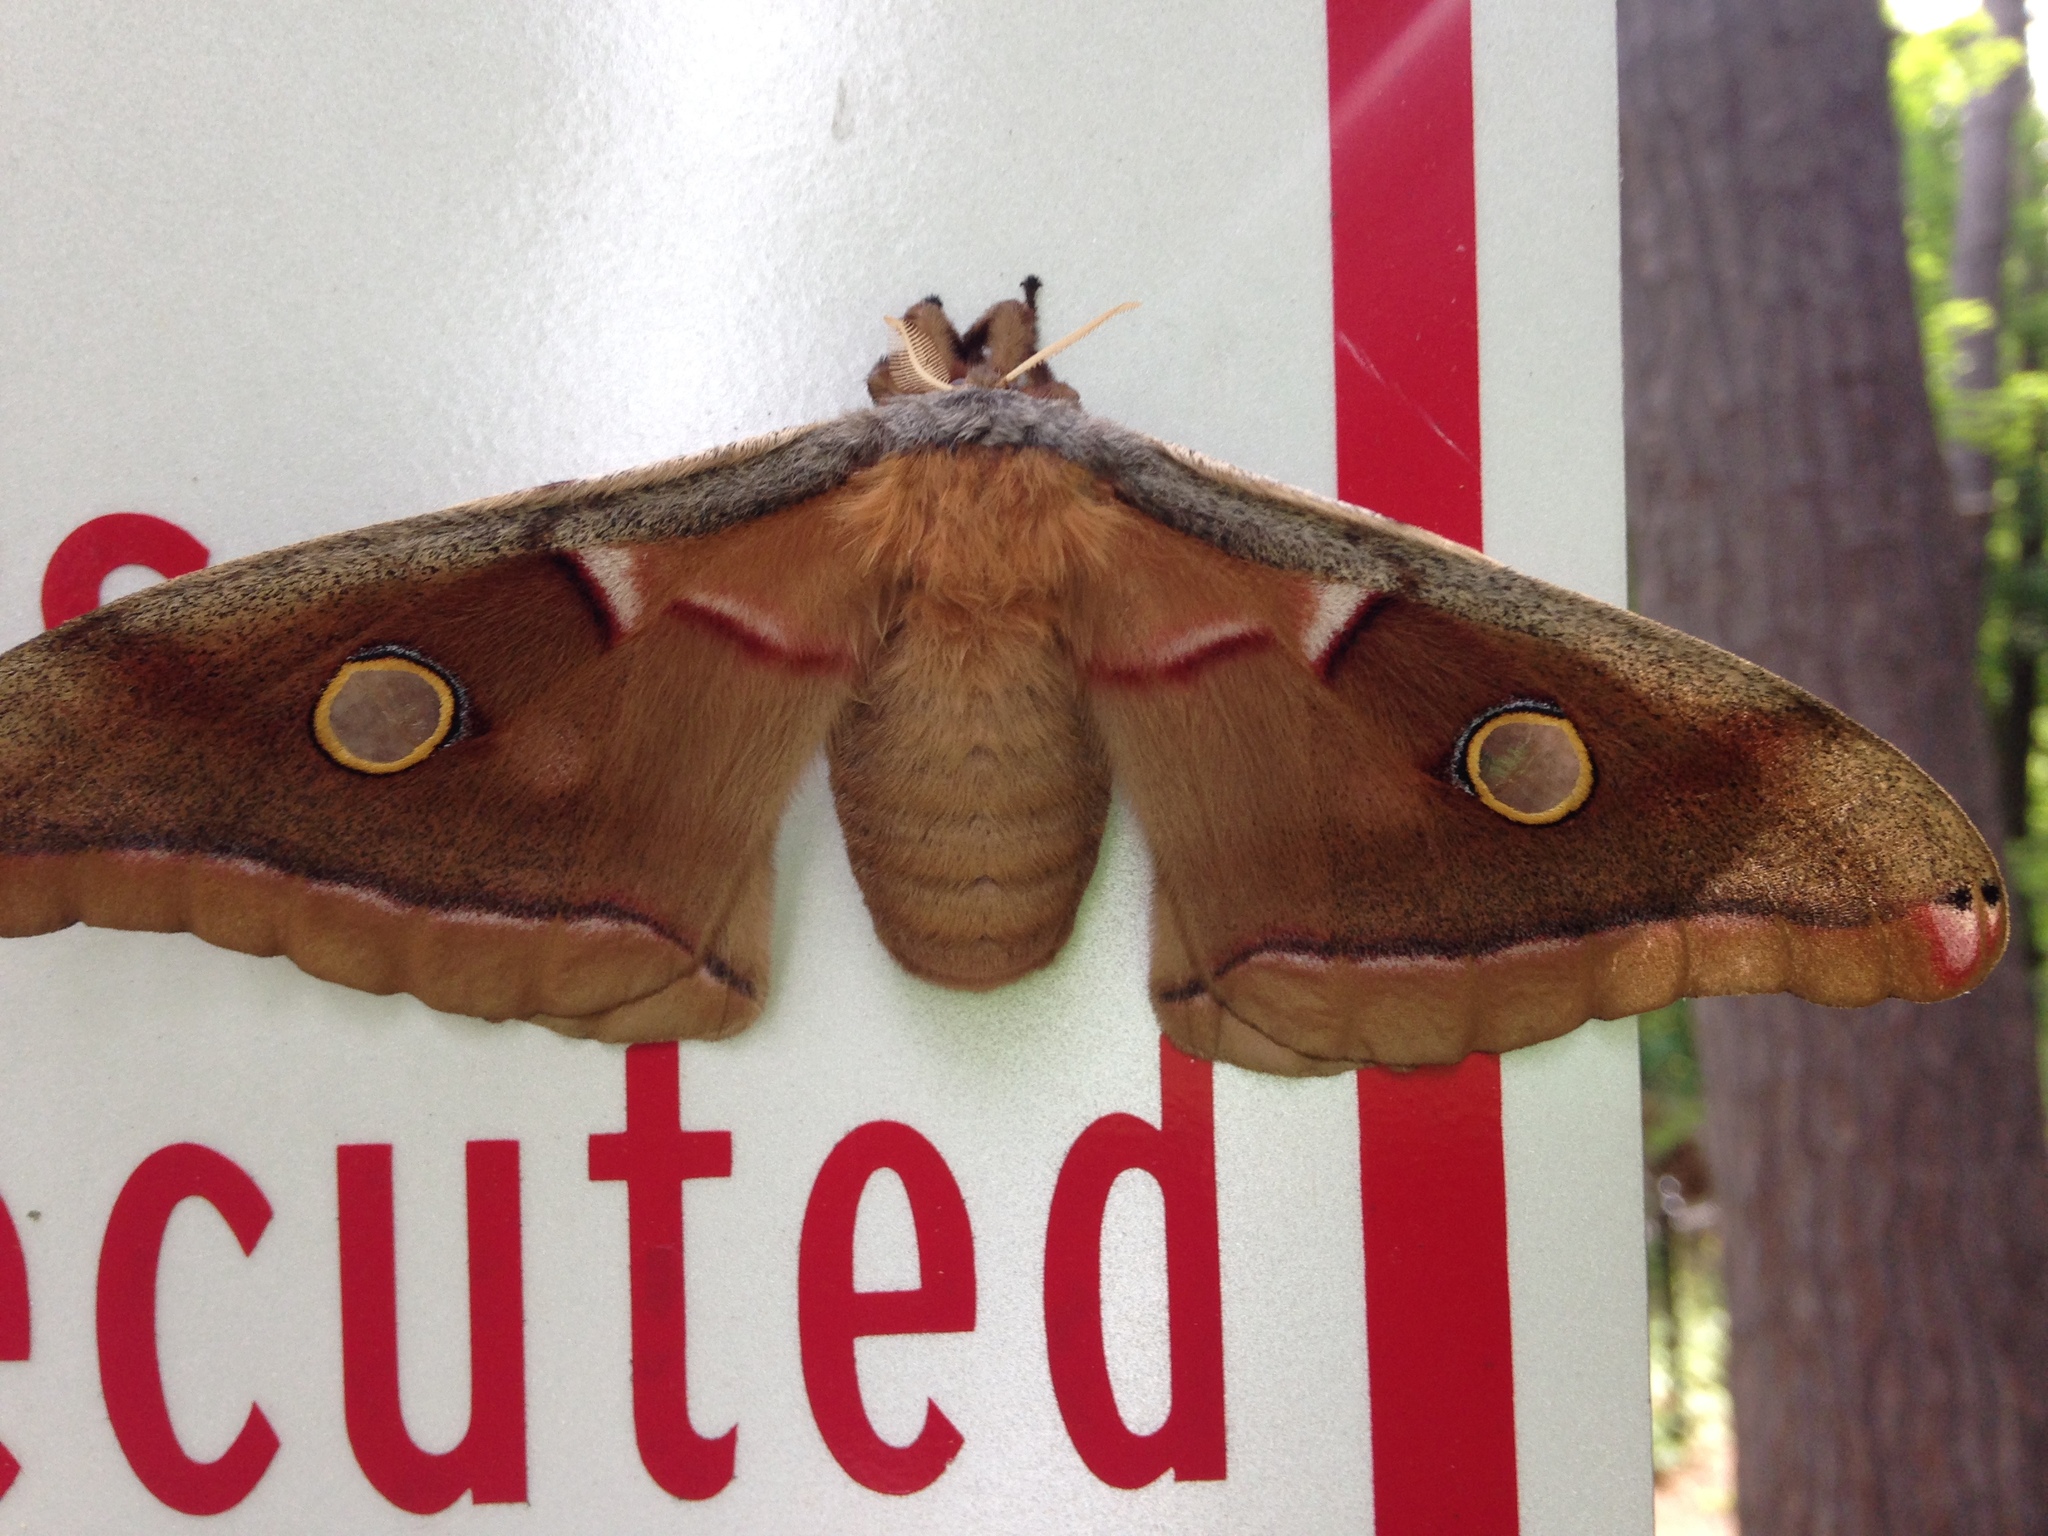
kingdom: Animalia
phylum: Arthropoda
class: Insecta
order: Lepidoptera
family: Saturniidae
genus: Antheraea
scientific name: Antheraea polyphemus
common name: Polyphemus moth
